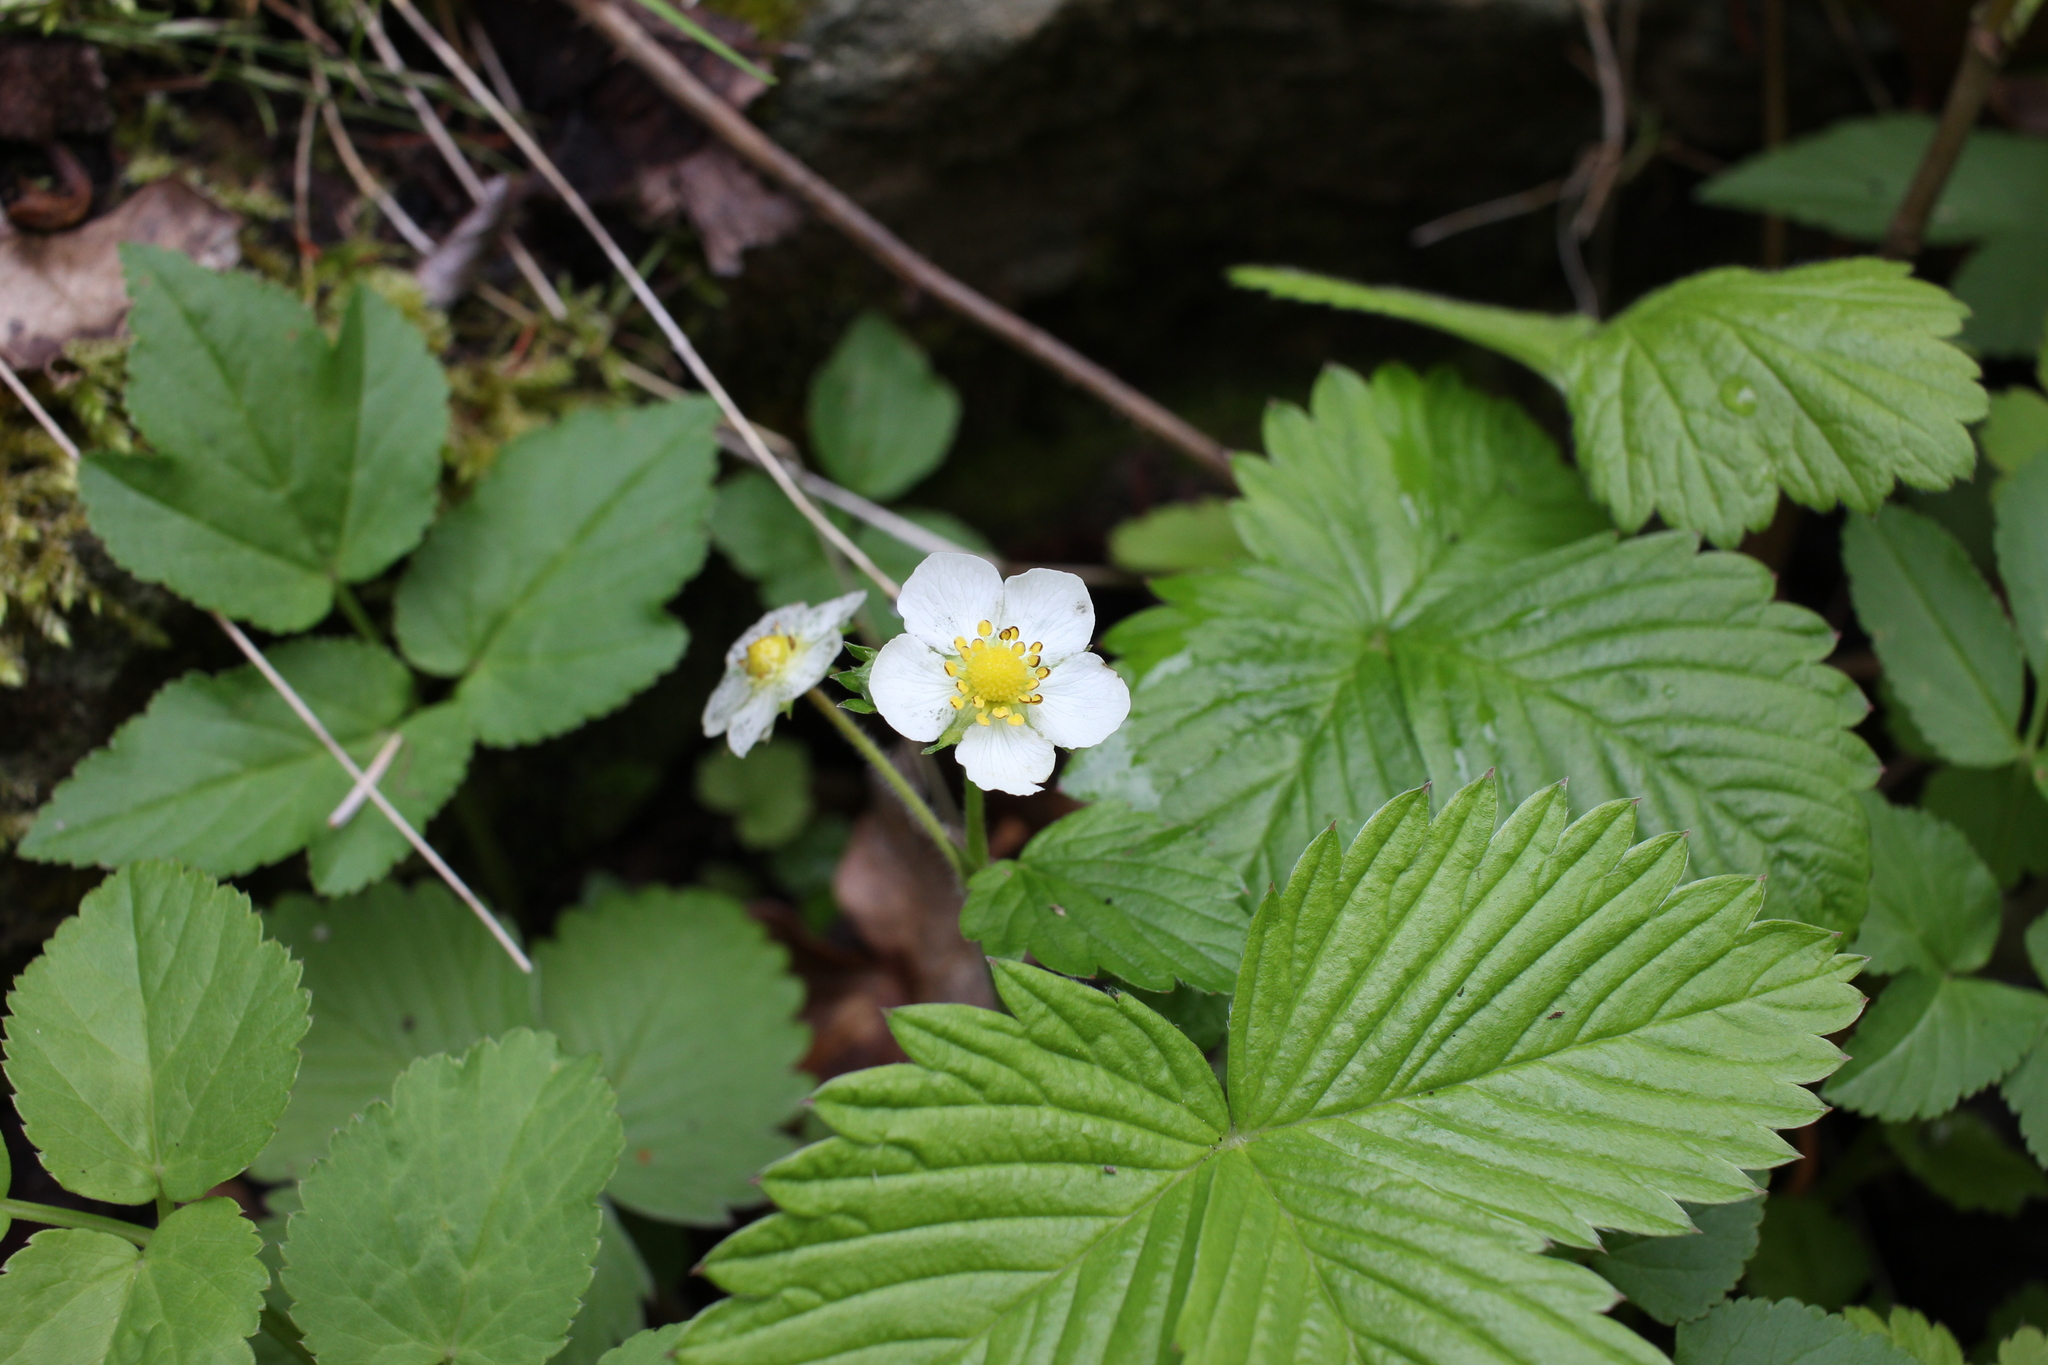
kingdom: Plantae
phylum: Tracheophyta
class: Magnoliopsida
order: Rosales
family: Rosaceae
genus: Fragaria
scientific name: Fragaria vesca
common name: Wild strawberry
